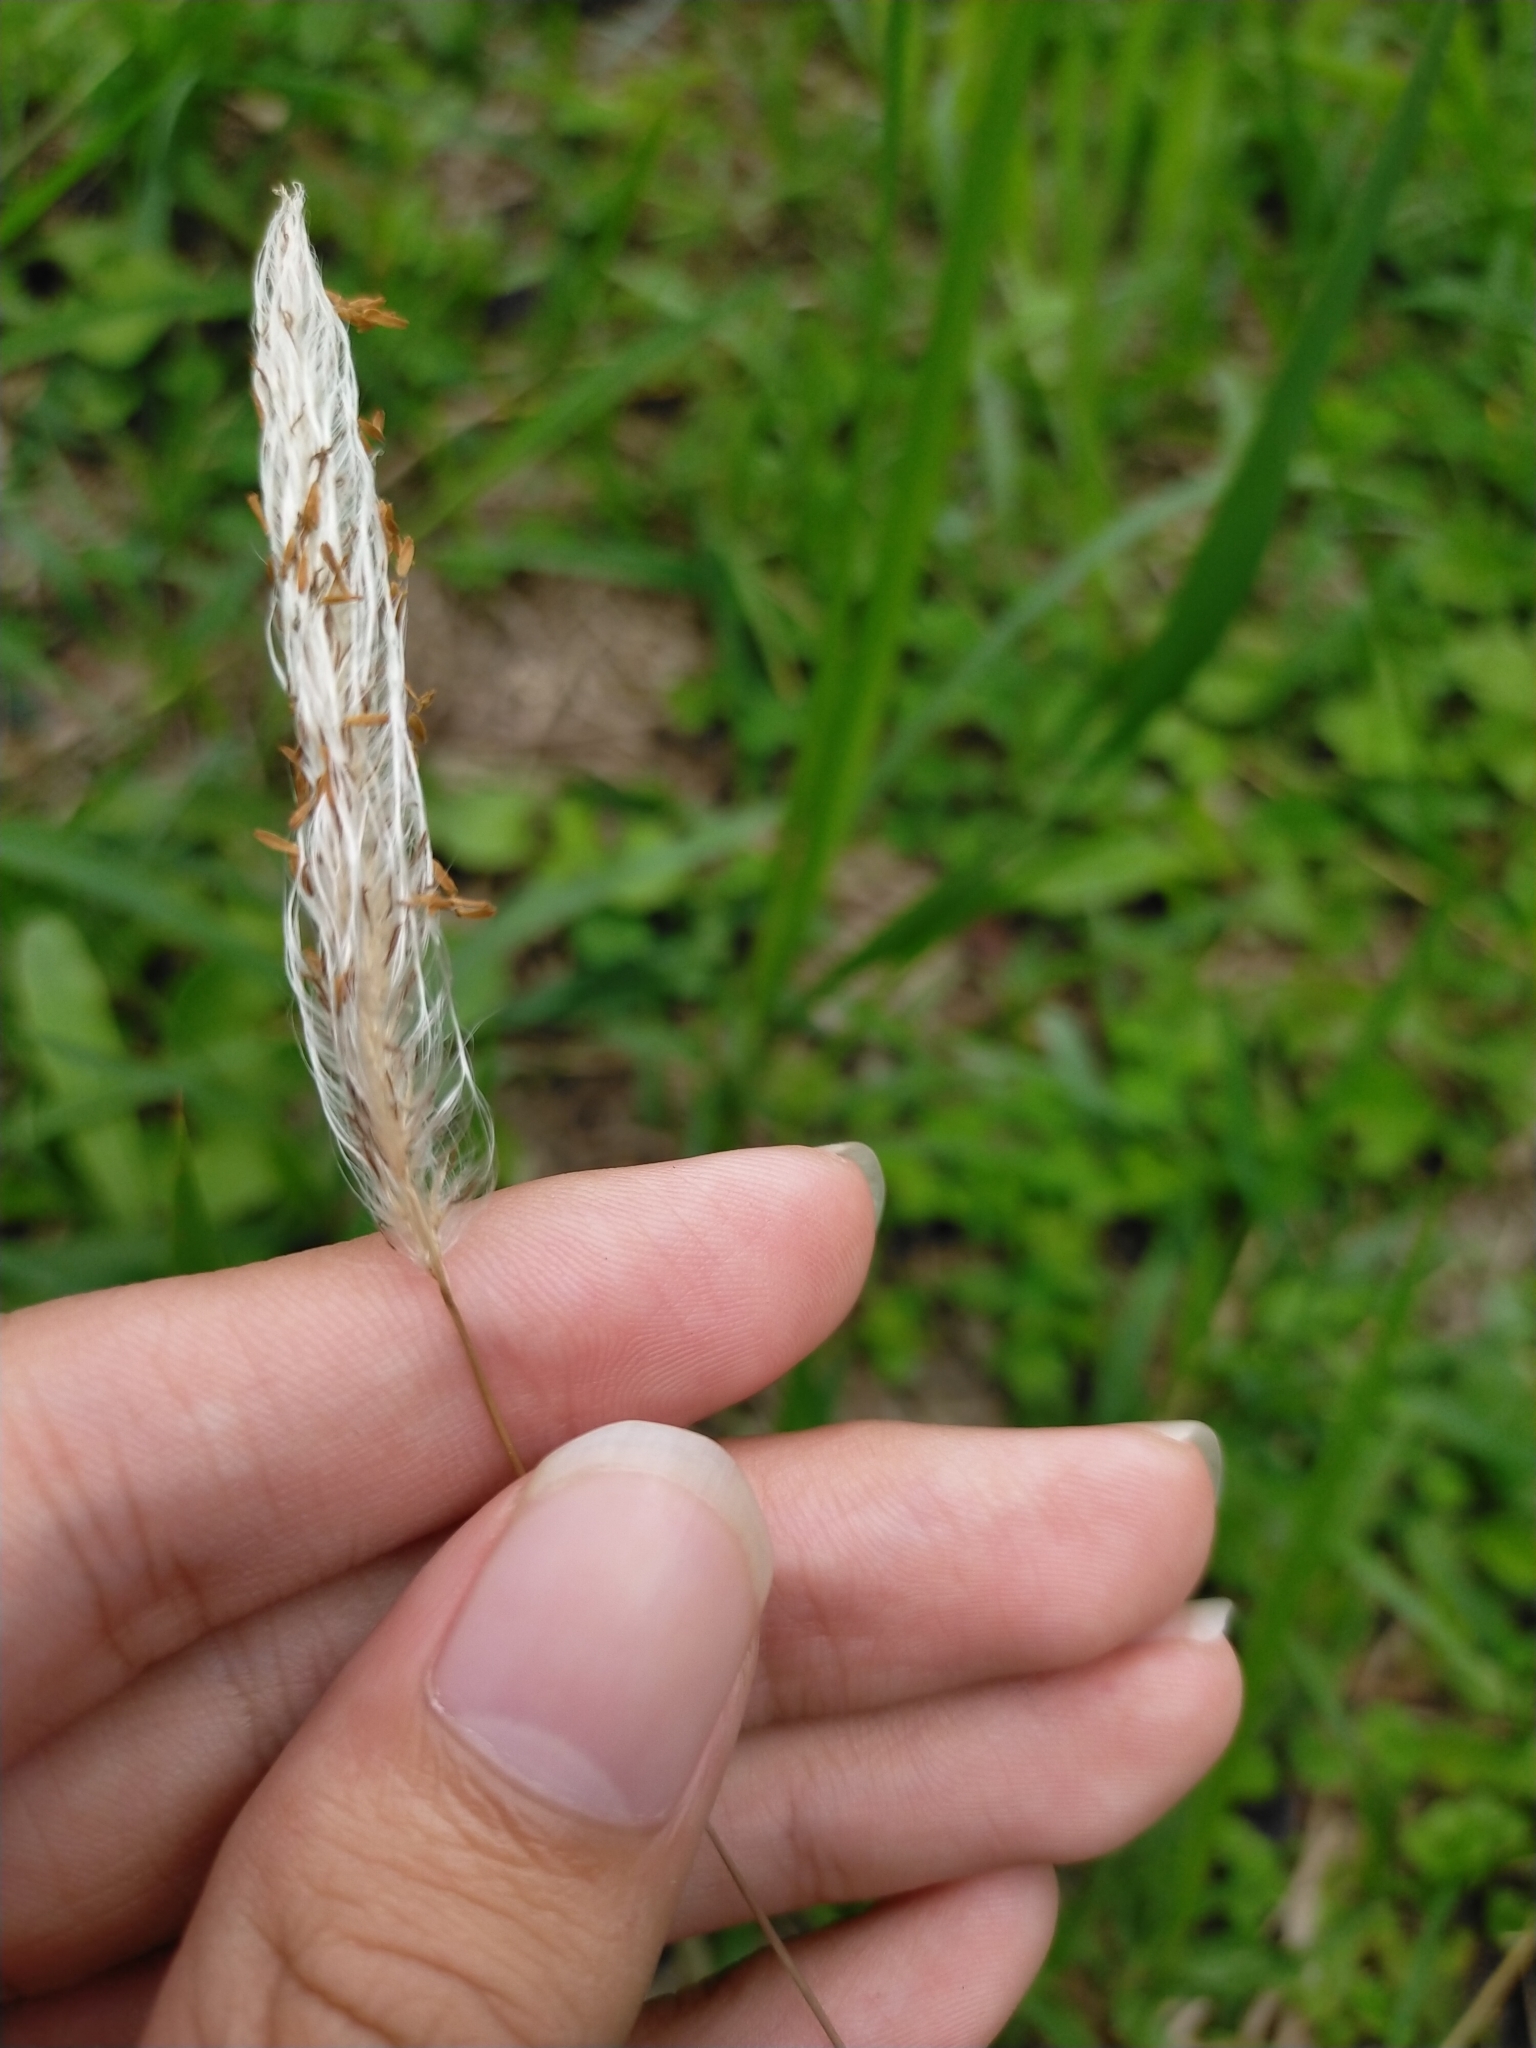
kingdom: Plantae
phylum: Tracheophyta
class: Liliopsida
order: Poales
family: Poaceae
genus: Imperata
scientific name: Imperata cylindrica
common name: Cogongrass
